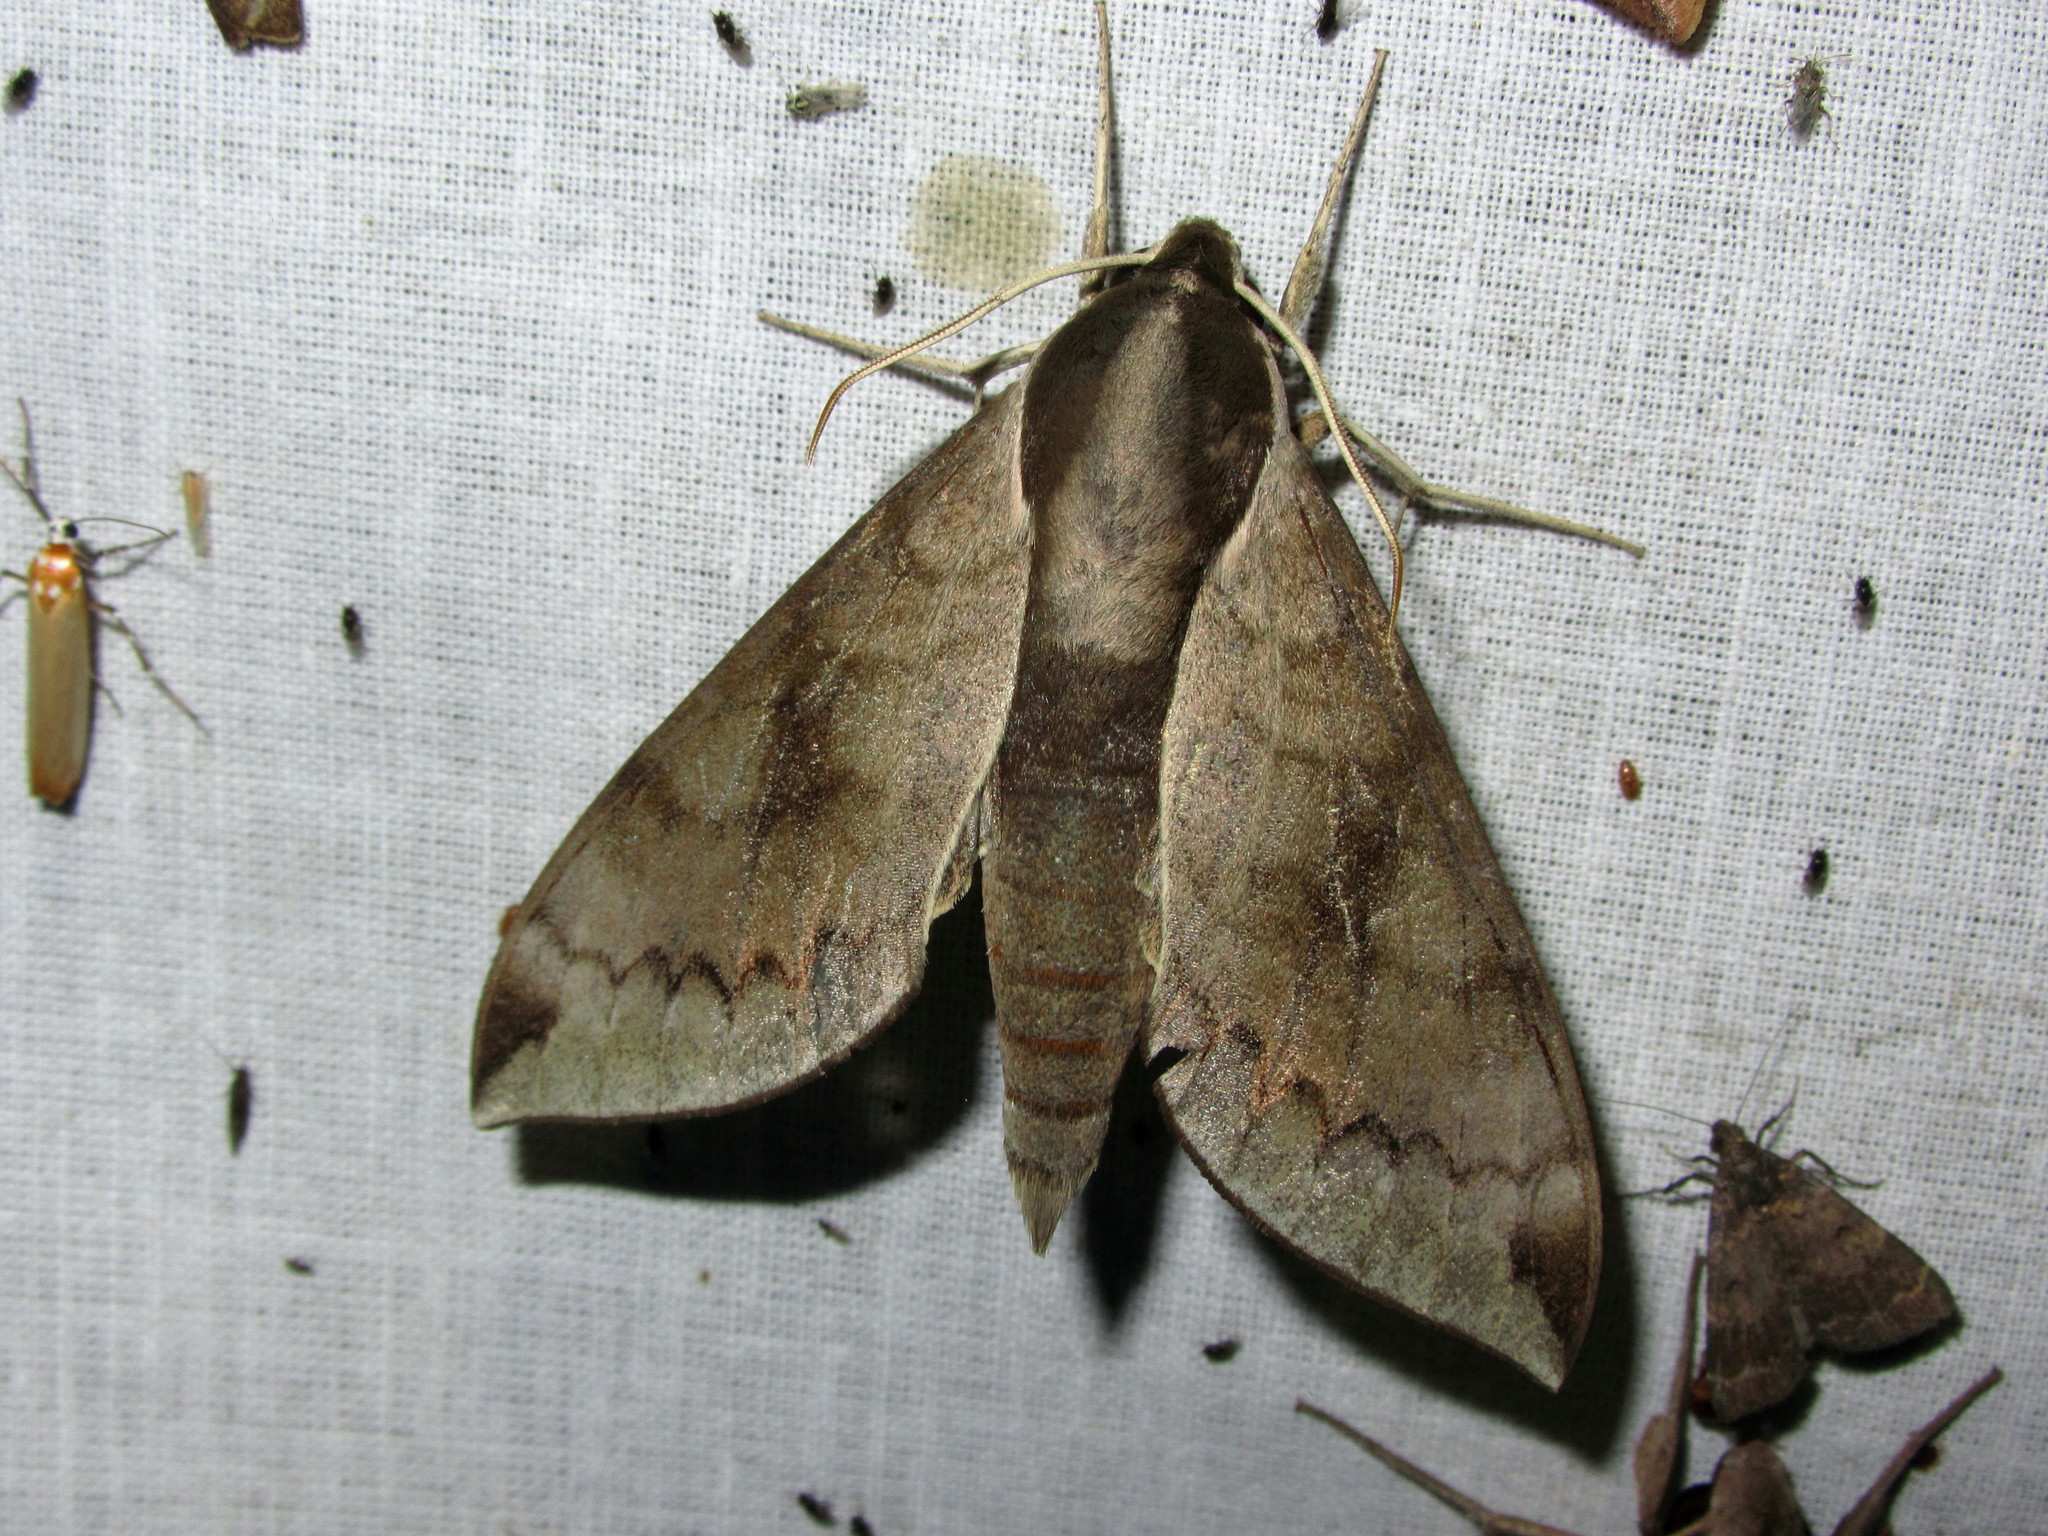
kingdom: Animalia
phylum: Arthropoda
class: Insecta
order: Lepidoptera
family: Sphingidae
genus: Acosmerycoides
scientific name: Acosmerycoides harterti
